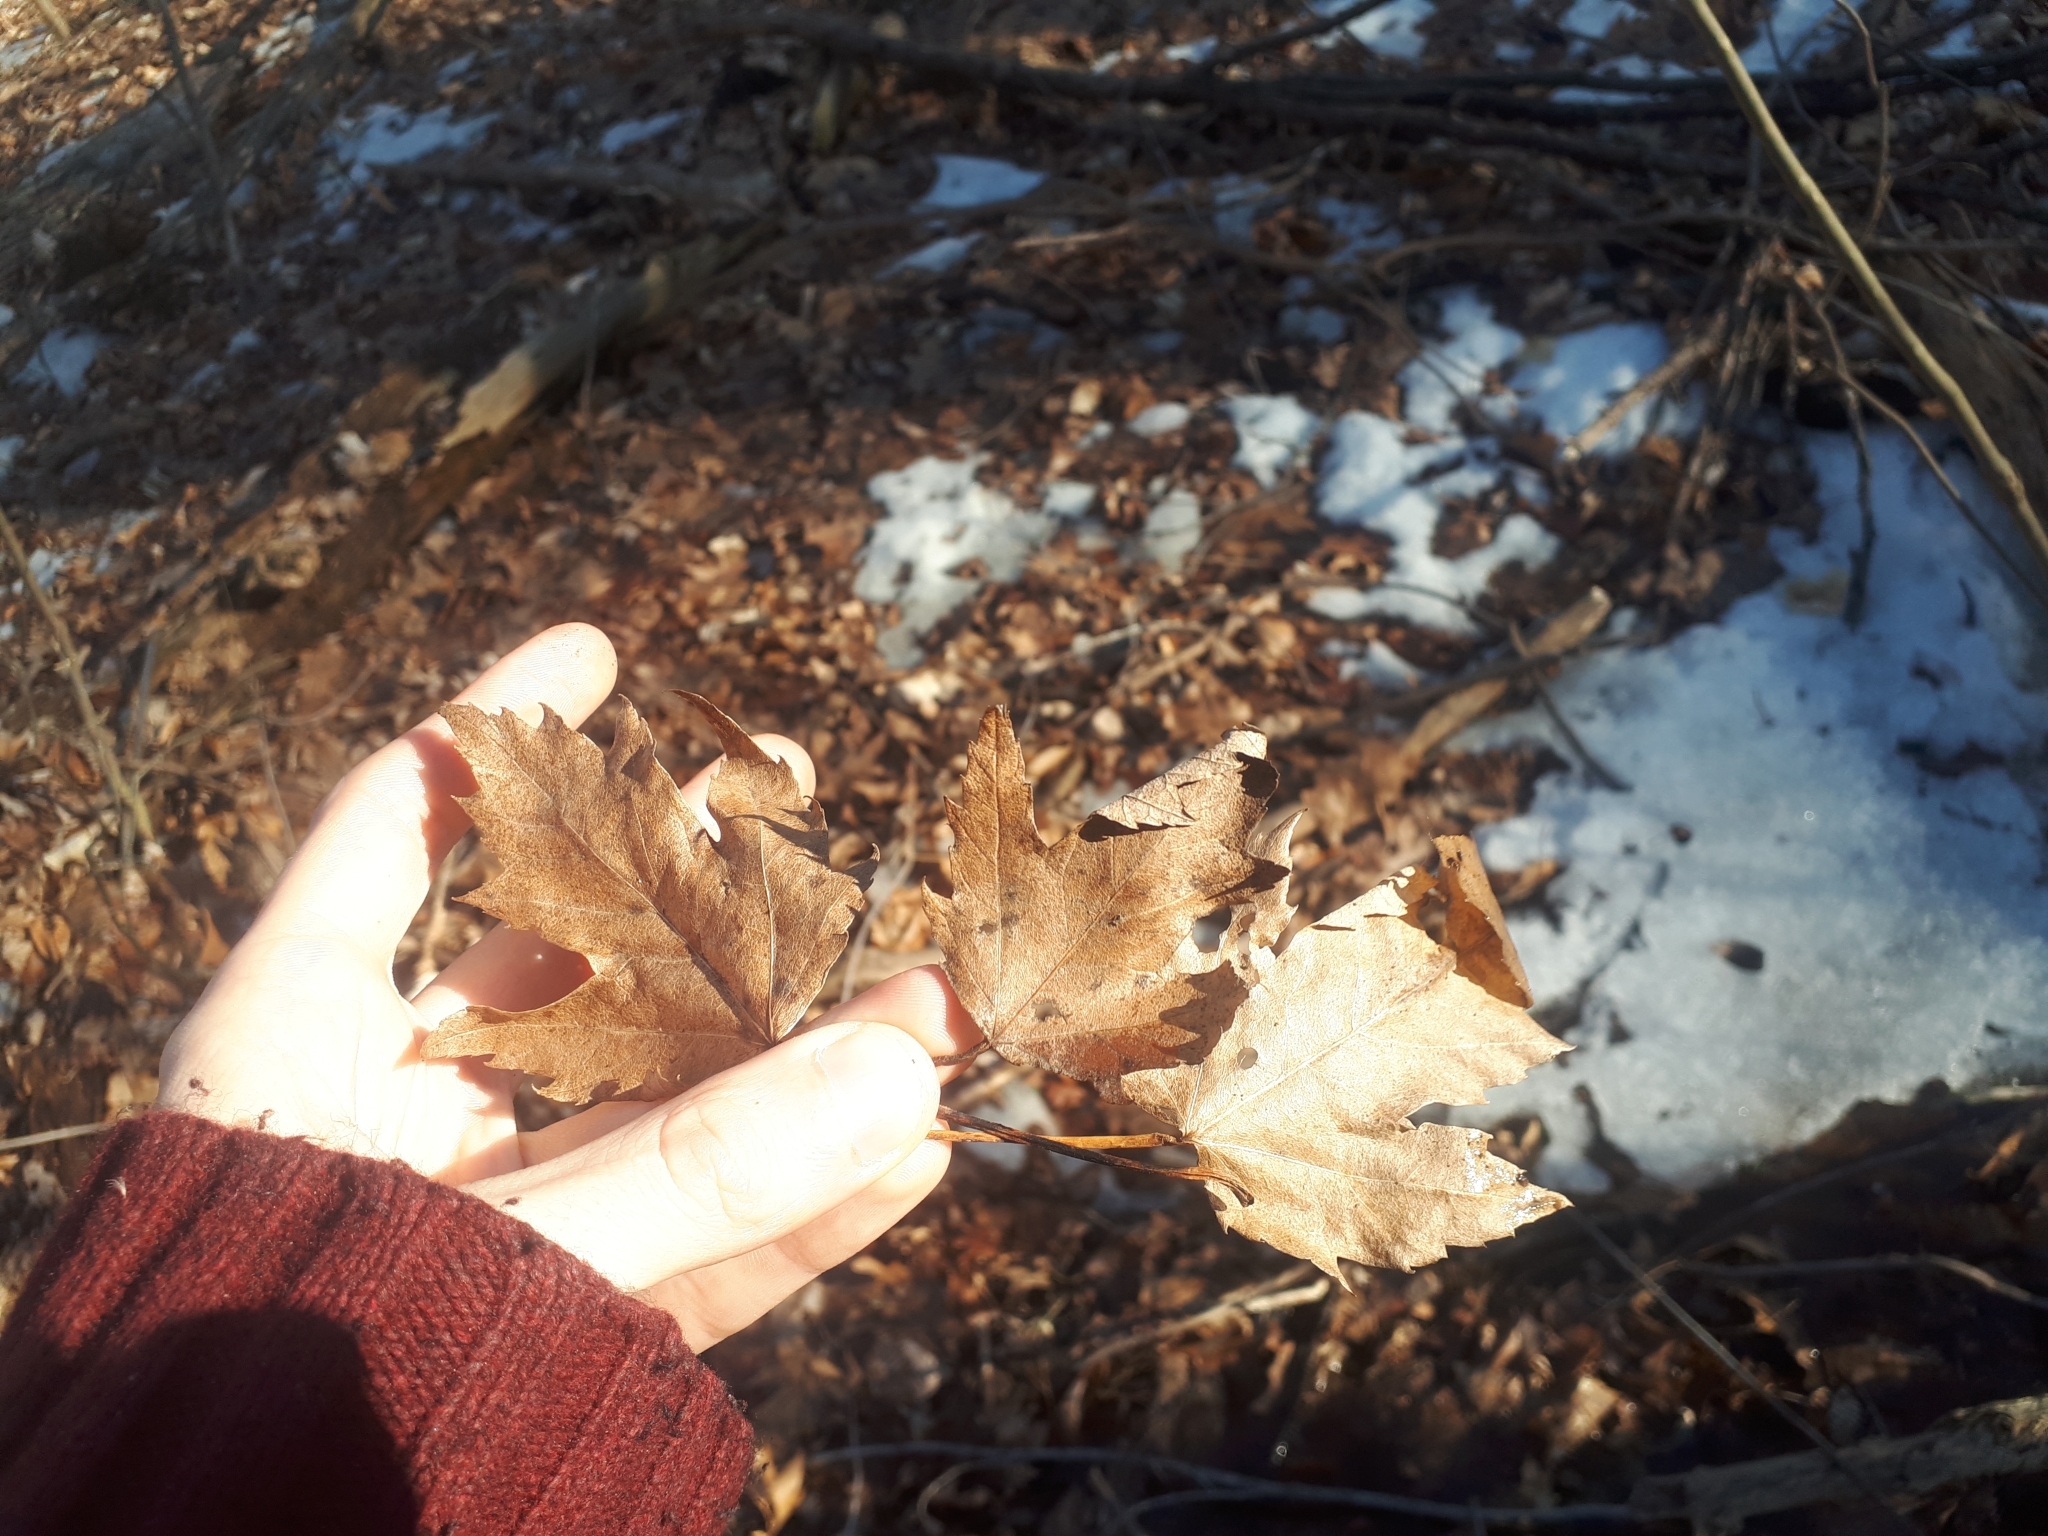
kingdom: Plantae
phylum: Tracheophyta
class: Magnoliopsida
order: Sapindales
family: Sapindaceae
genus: Acer
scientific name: Acer freemanii
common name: Freeman maple
